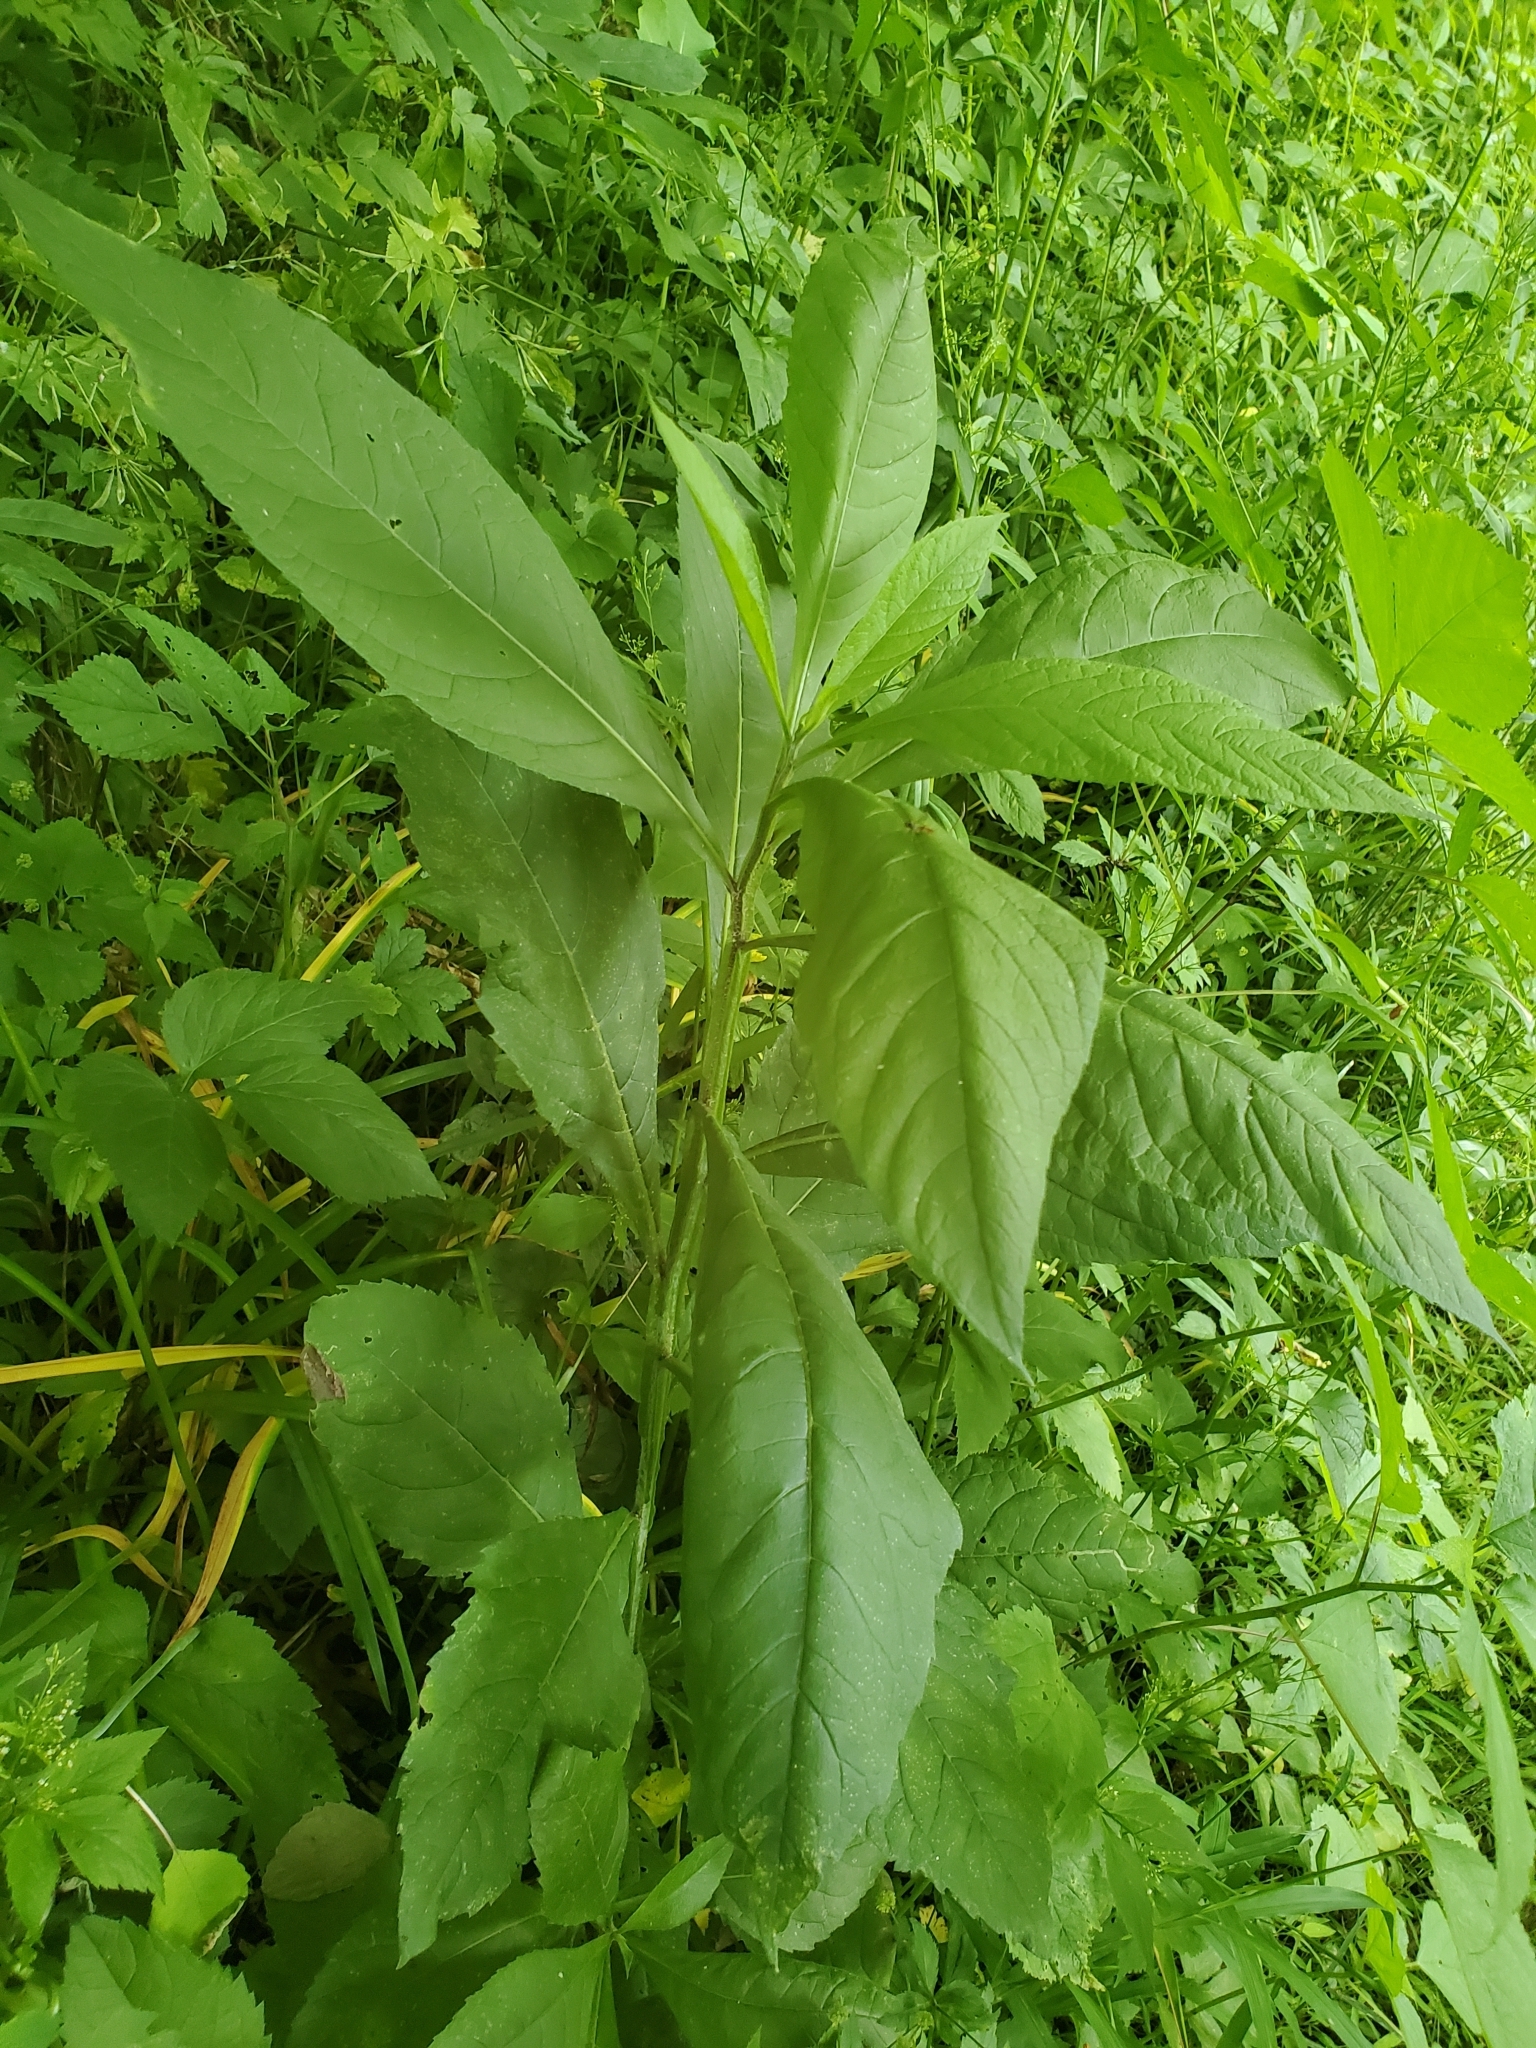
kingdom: Plantae
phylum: Tracheophyta
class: Magnoliopsida
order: Asterales
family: Asteraceae
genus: Verbesina
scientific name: Verbesina alternifolia
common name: Wingstem
